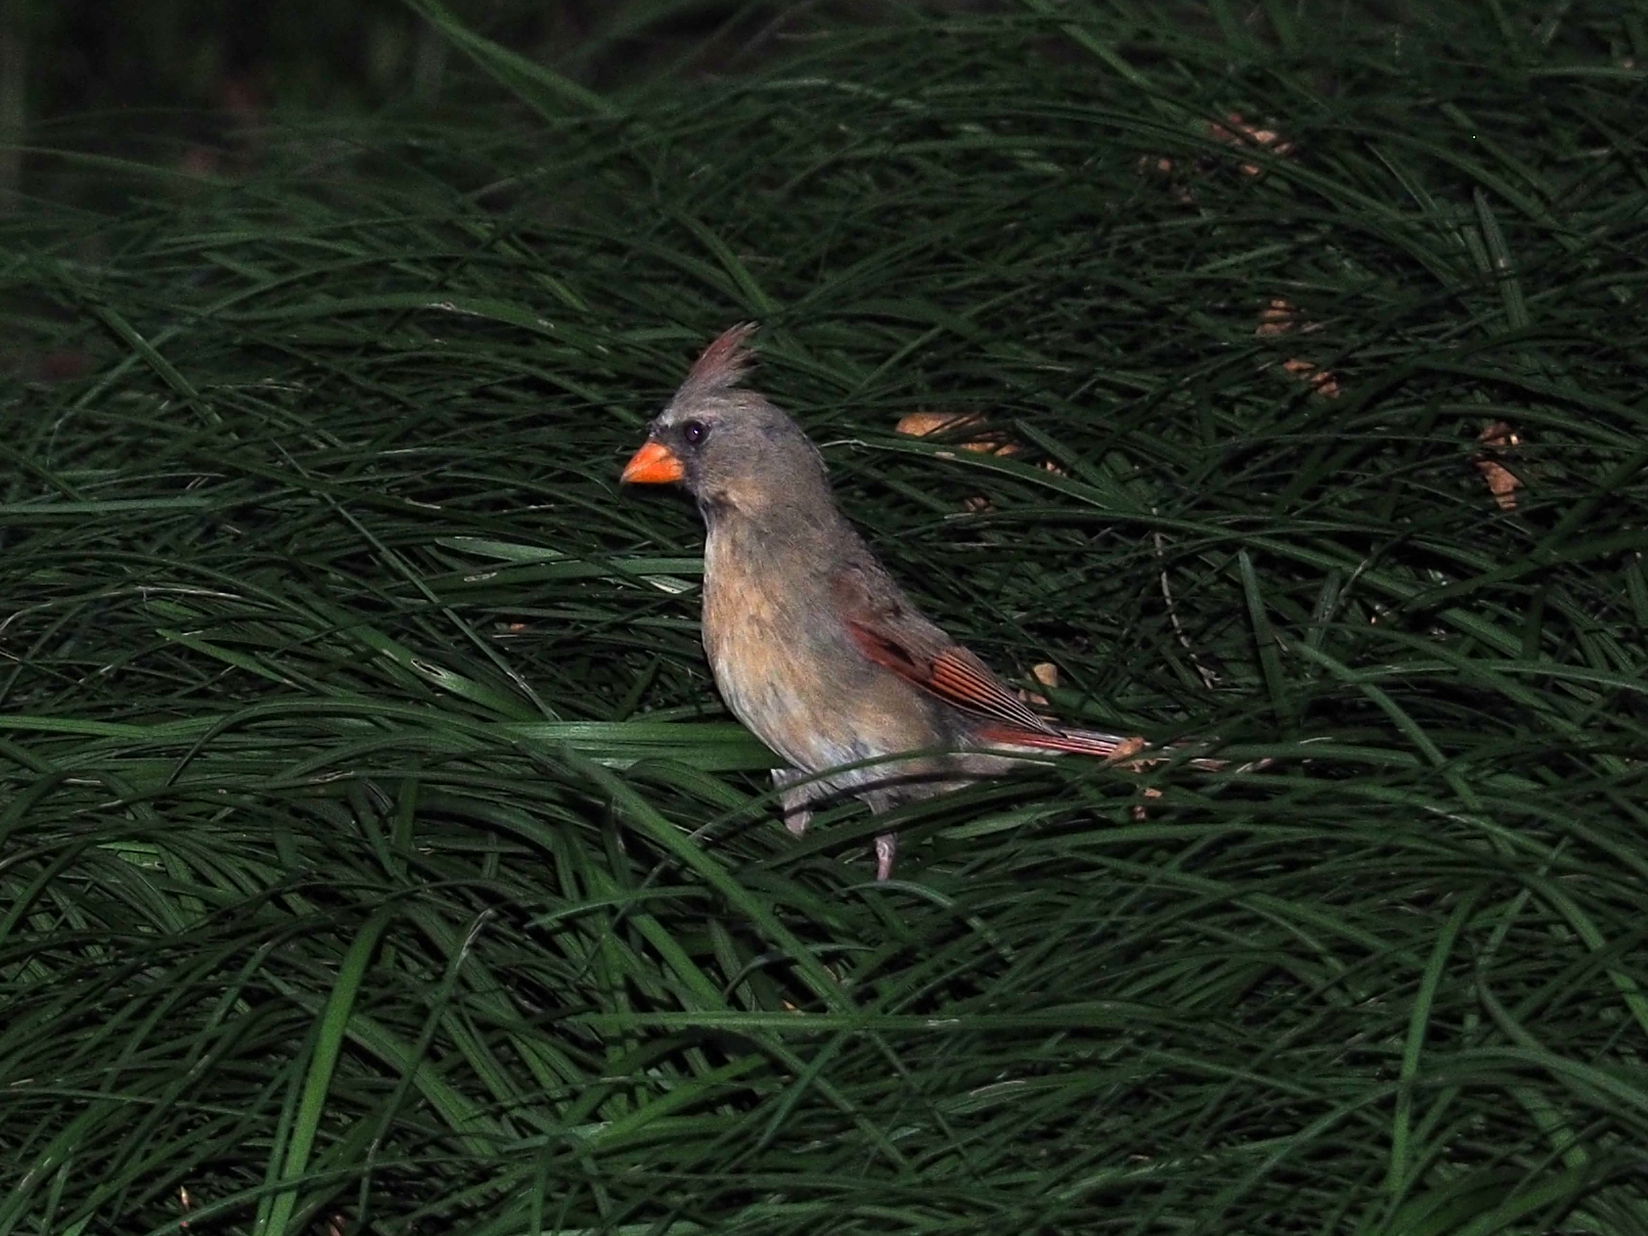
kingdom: Animalia
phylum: Chordata
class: Aves
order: Passeriformes
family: Cardinalidae
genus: Cardinalis
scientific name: Cardinalis cardinalis
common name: Northern cardinal
